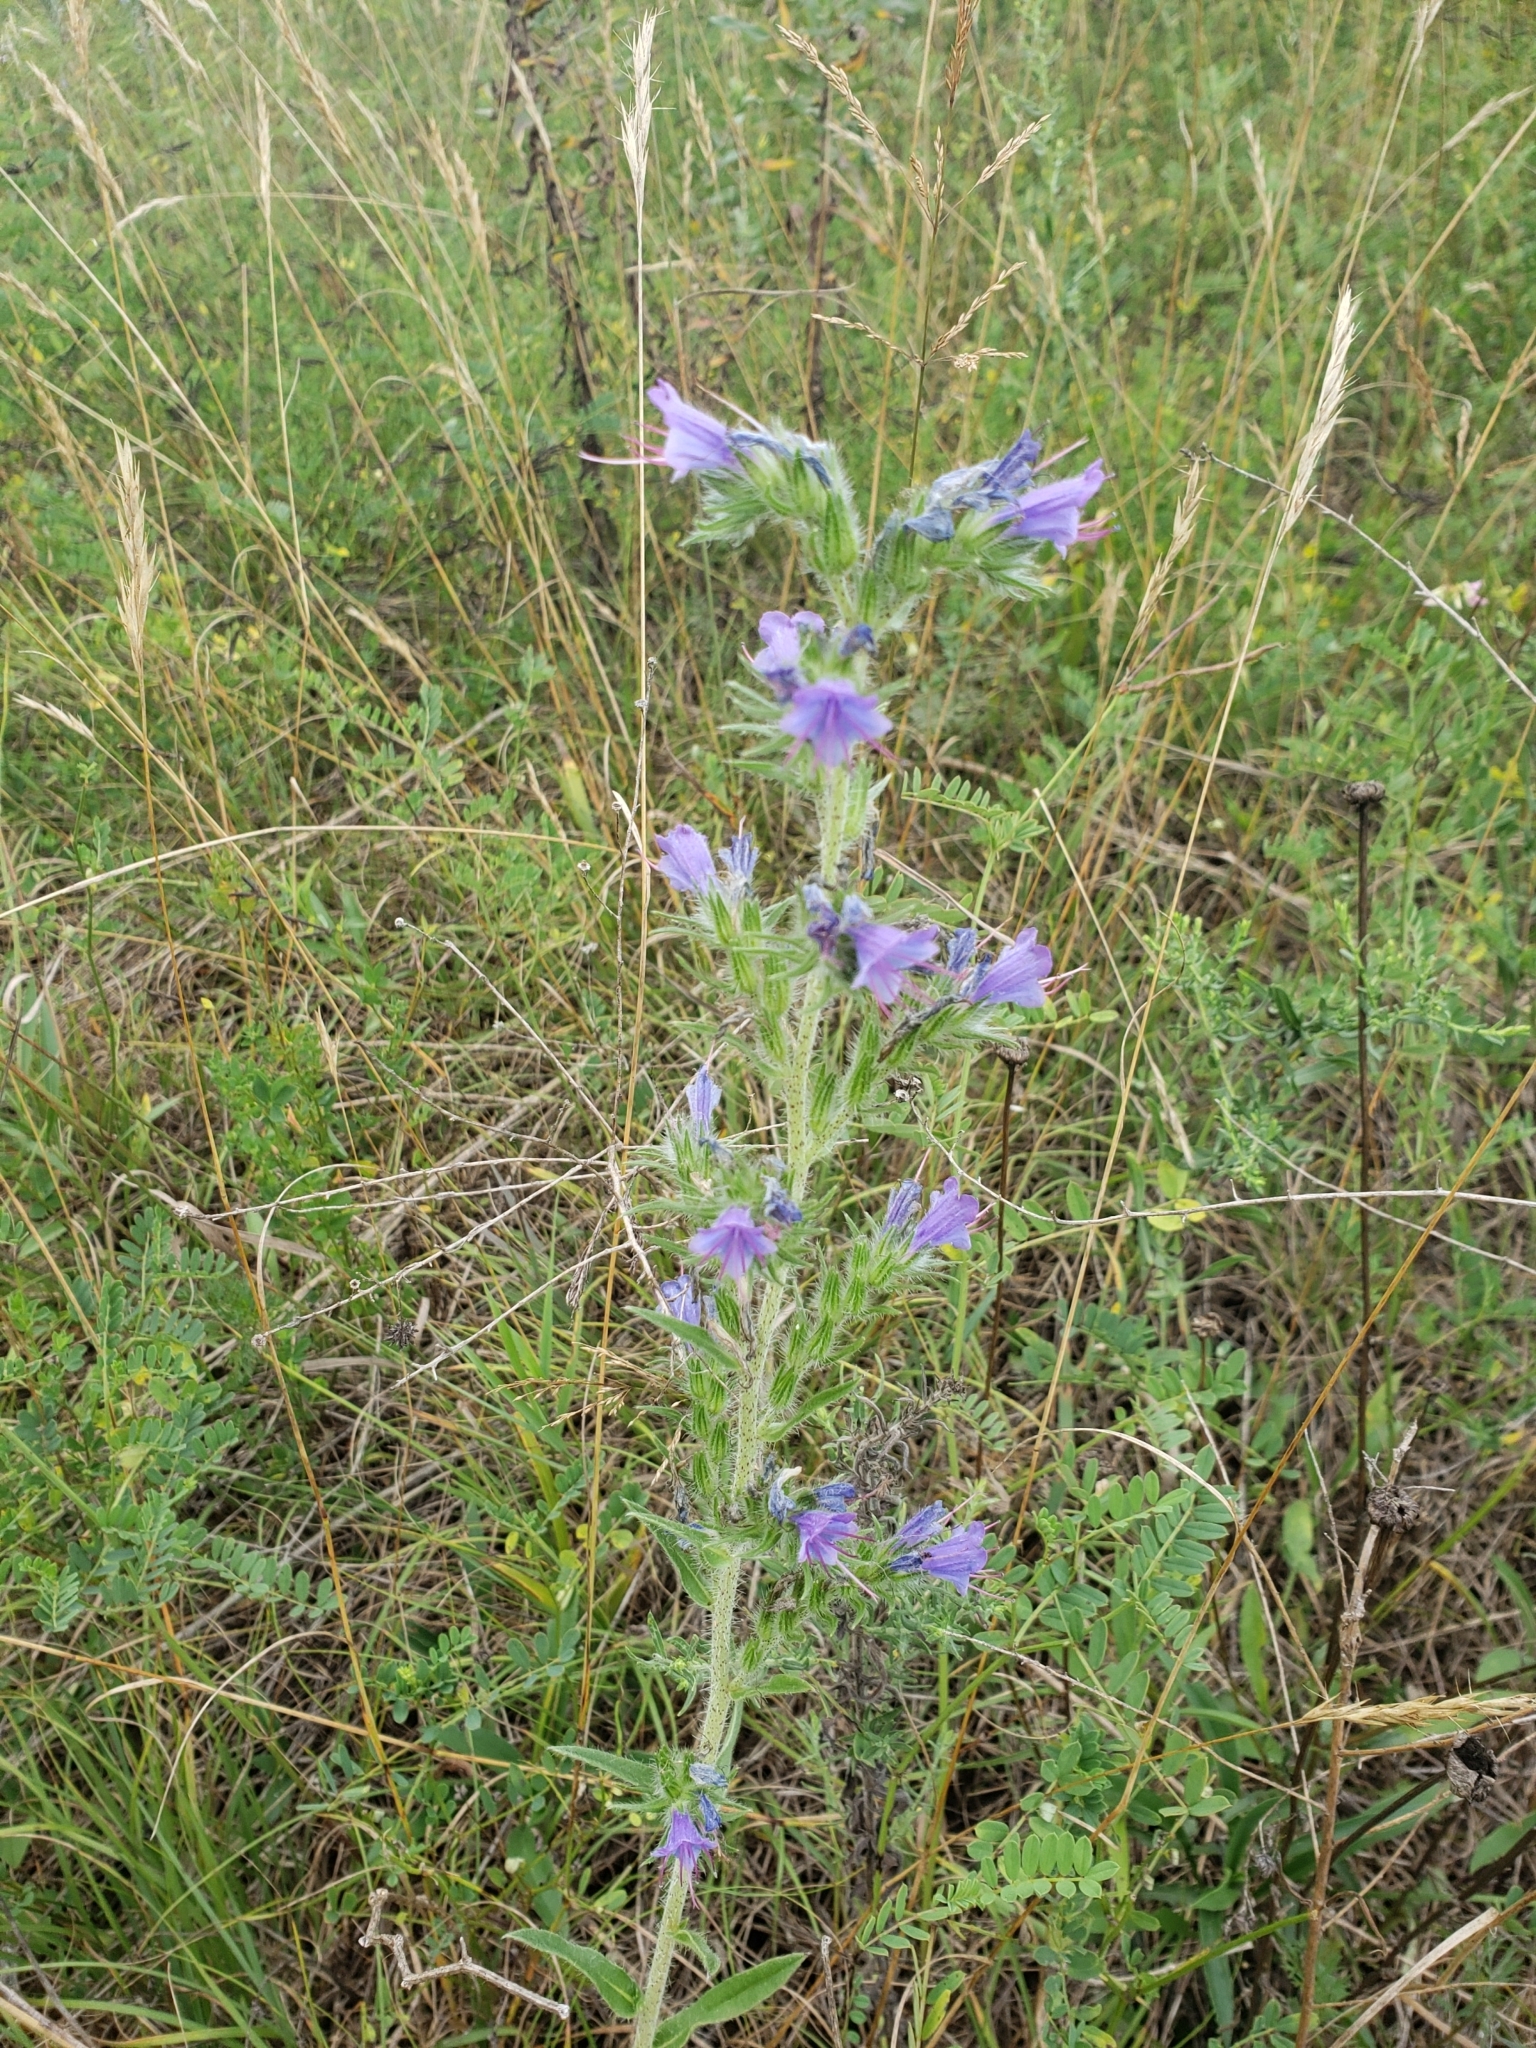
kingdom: Plantae
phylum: Tracheophyta
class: Magnoliopsida
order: Boraginales
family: Boraginaceae
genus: Echium
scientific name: Echium vulgare
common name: Common viper's bugloss
